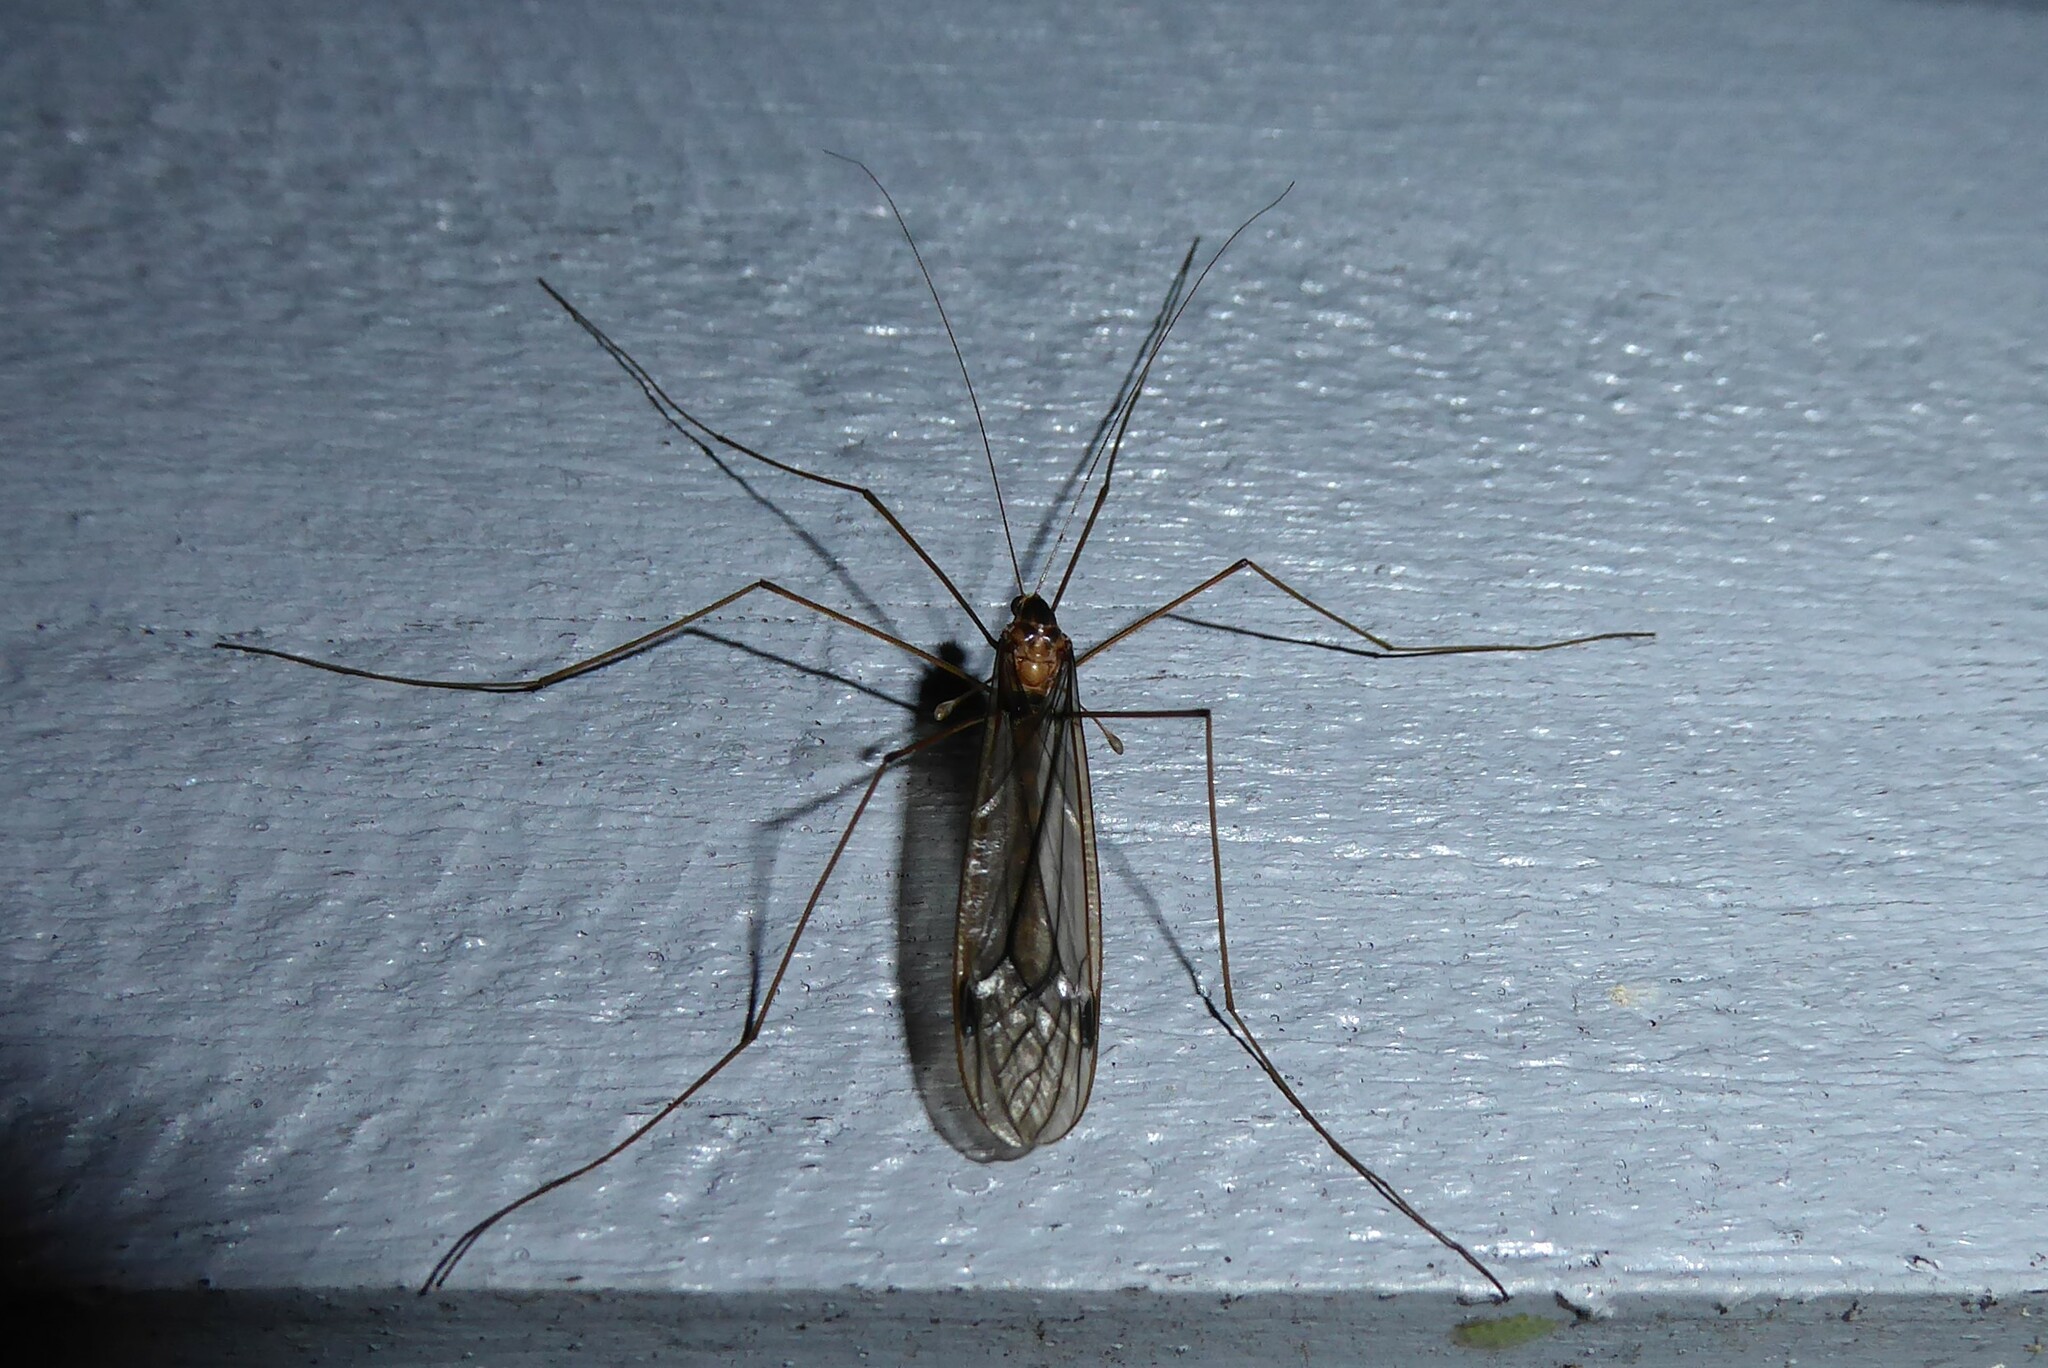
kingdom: Animalia
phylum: Arthropoda
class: Insecta
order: Diptera
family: Tipulidae
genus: Leptotarsus
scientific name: Leptotarsus pallidus
